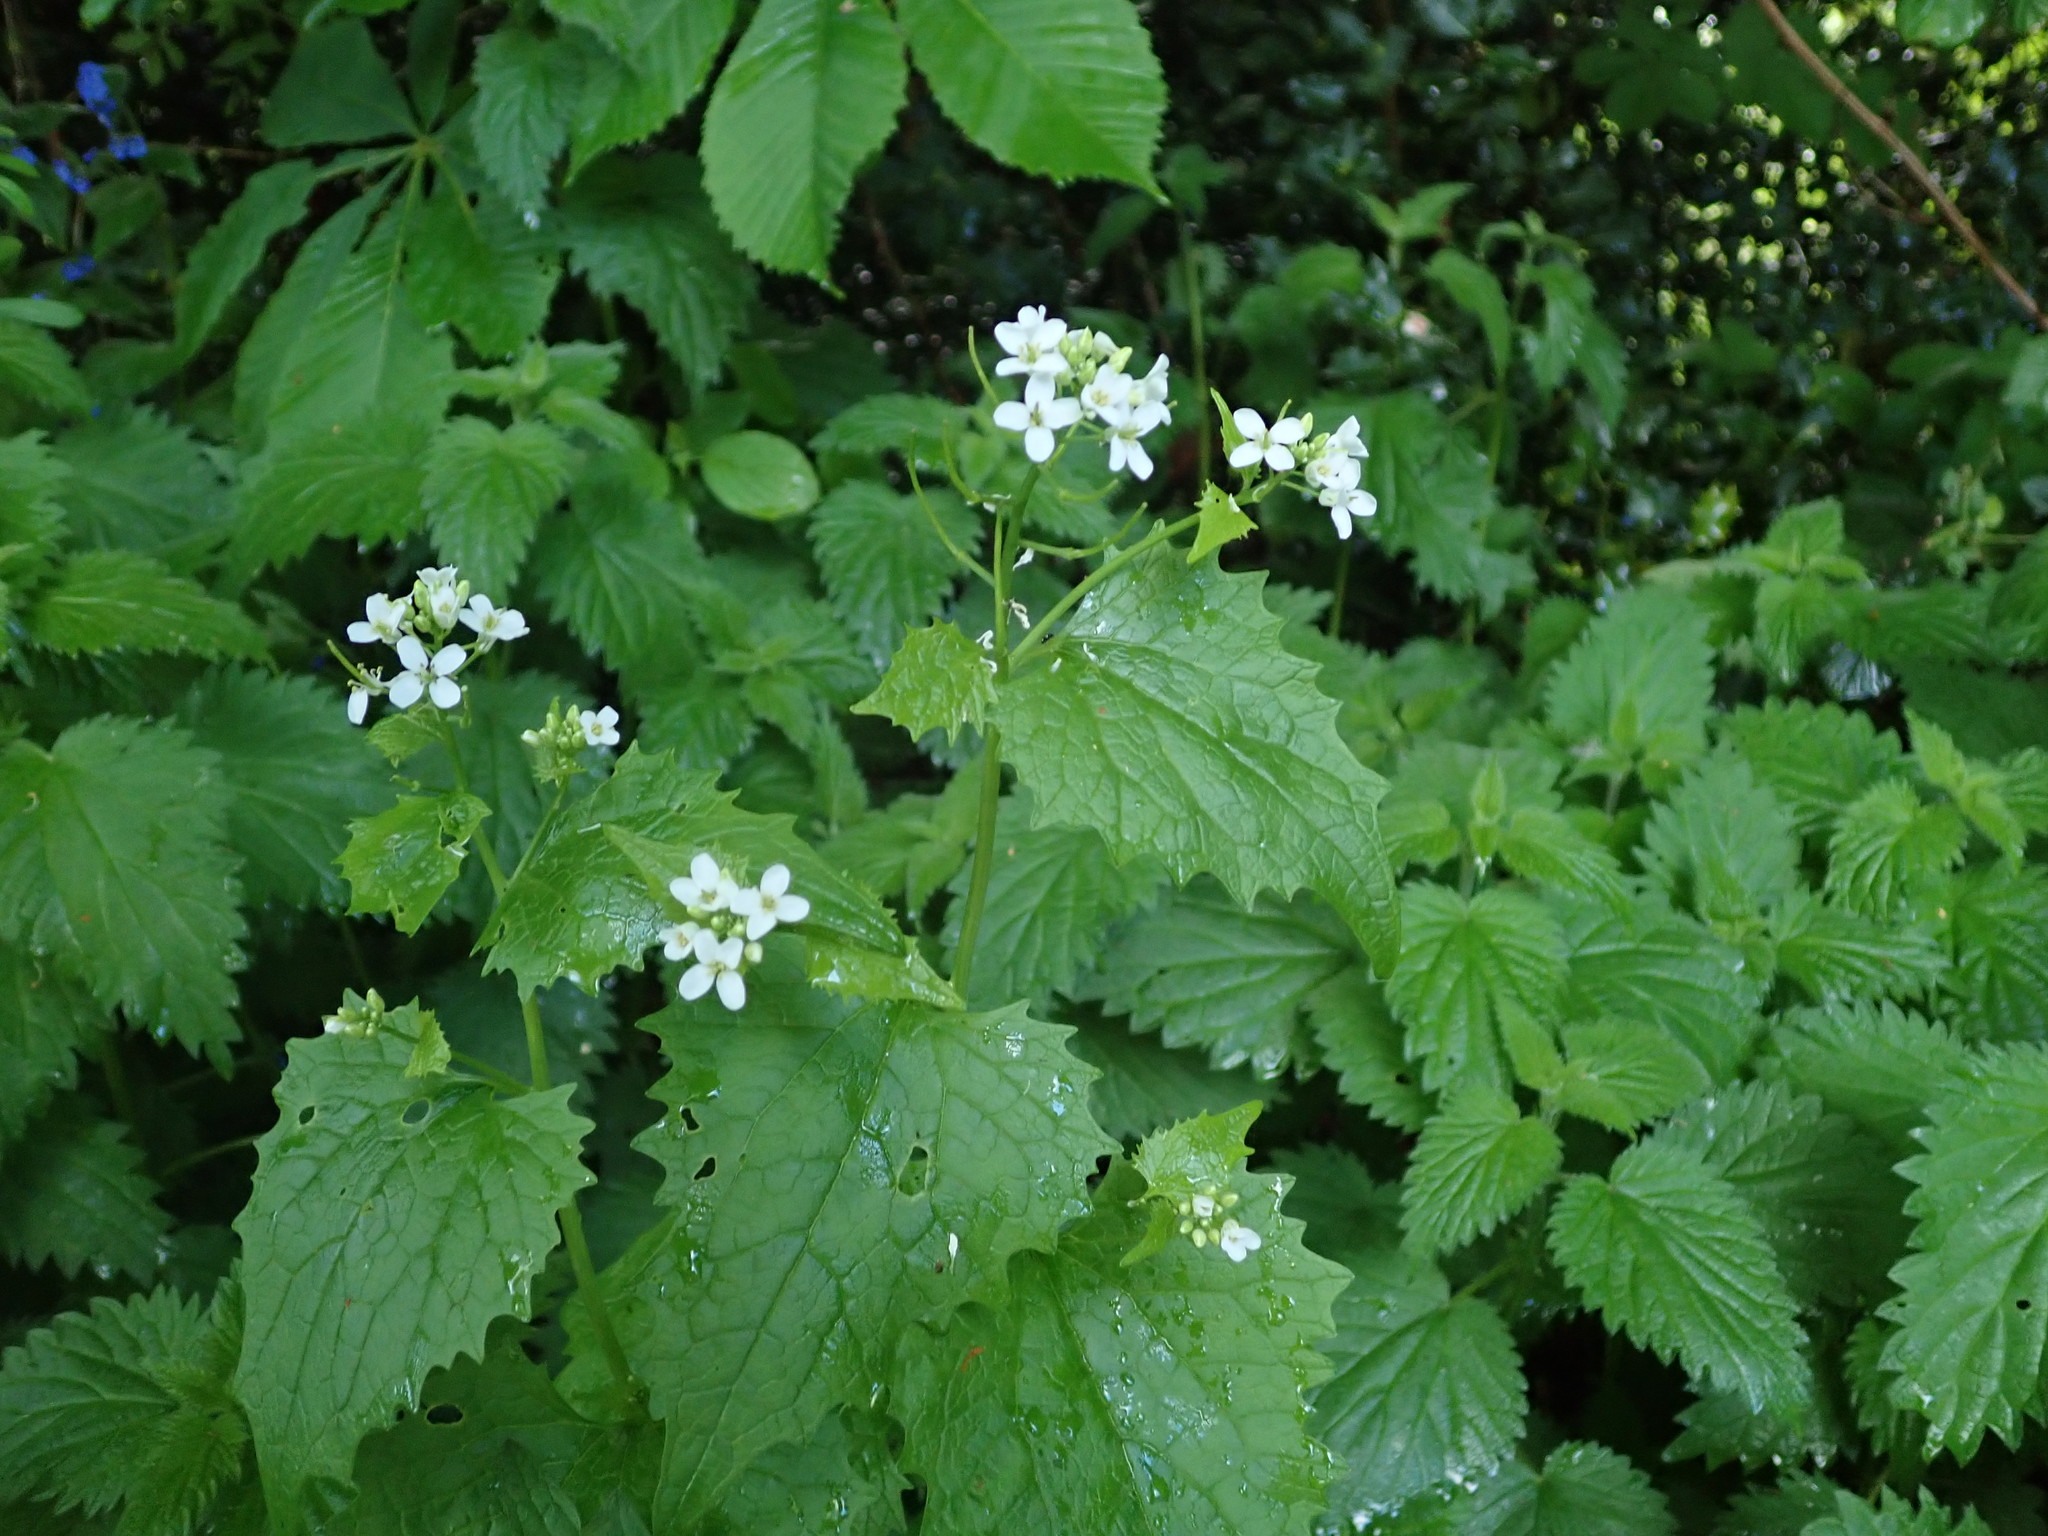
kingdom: Plantae
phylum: Tracheophyta
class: Magnoliopsida
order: Brassicales
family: Brassicaceae
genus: Alliaria
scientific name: Alliaria petiolata
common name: Garlic mustard
